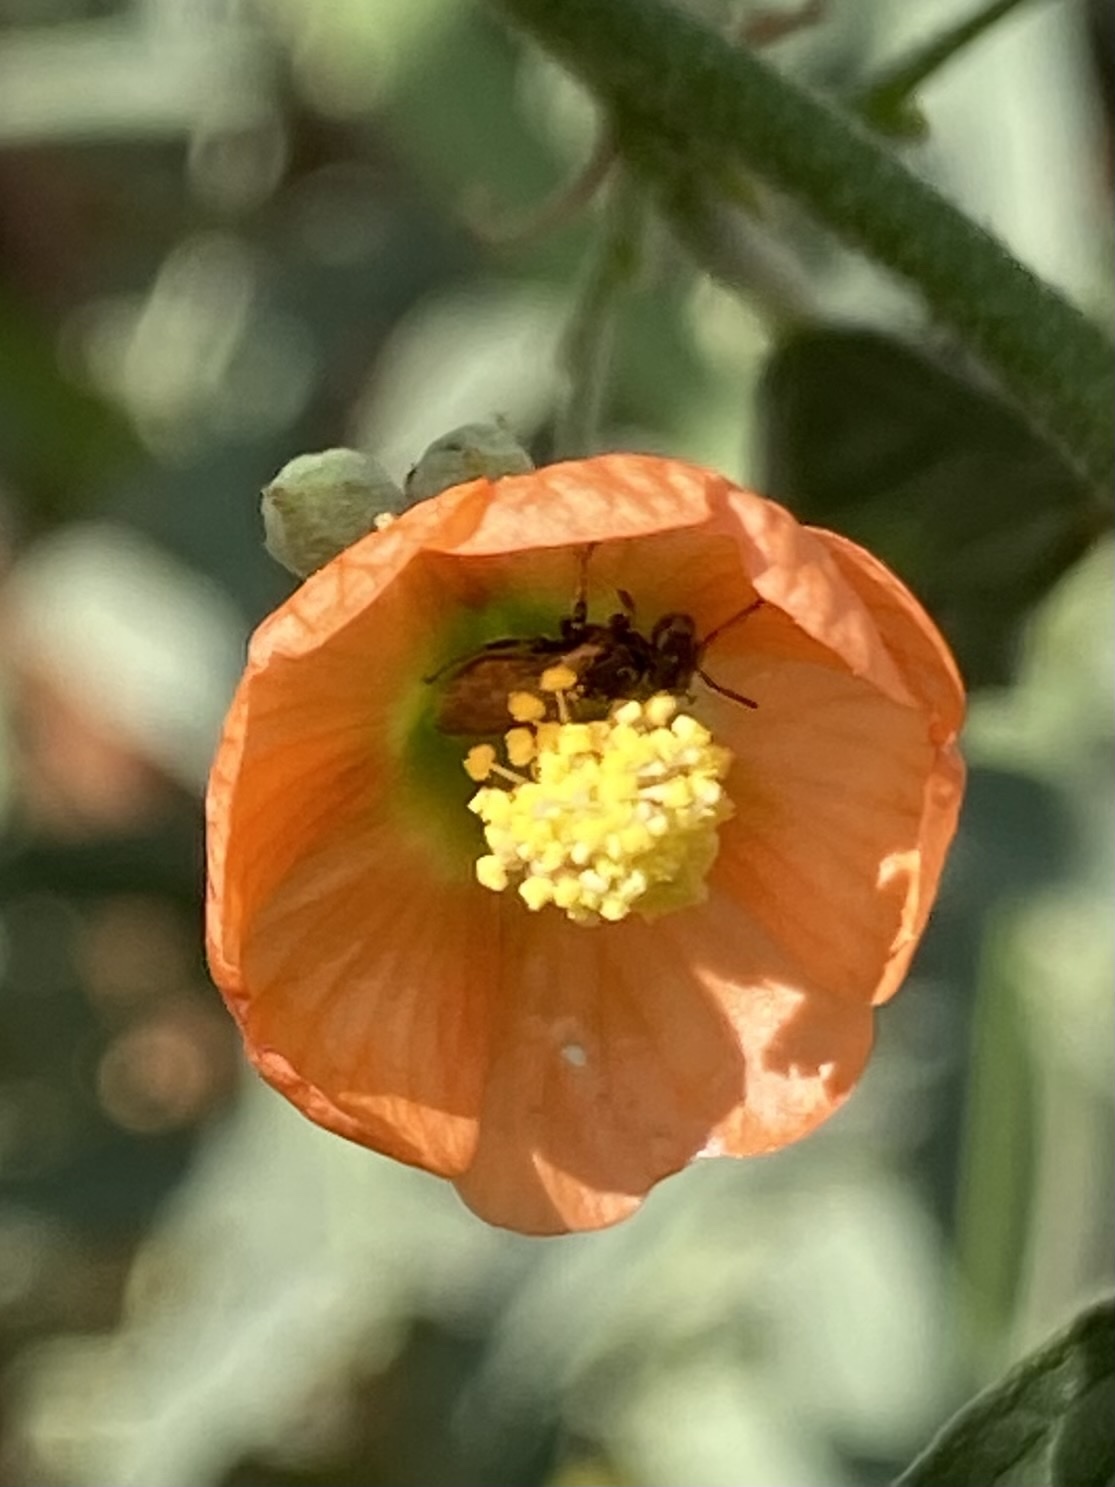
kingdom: Animalia
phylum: Arthropoda
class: Insecta
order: Hymenoptera
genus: Macroteropsis
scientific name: Macroteropsis
